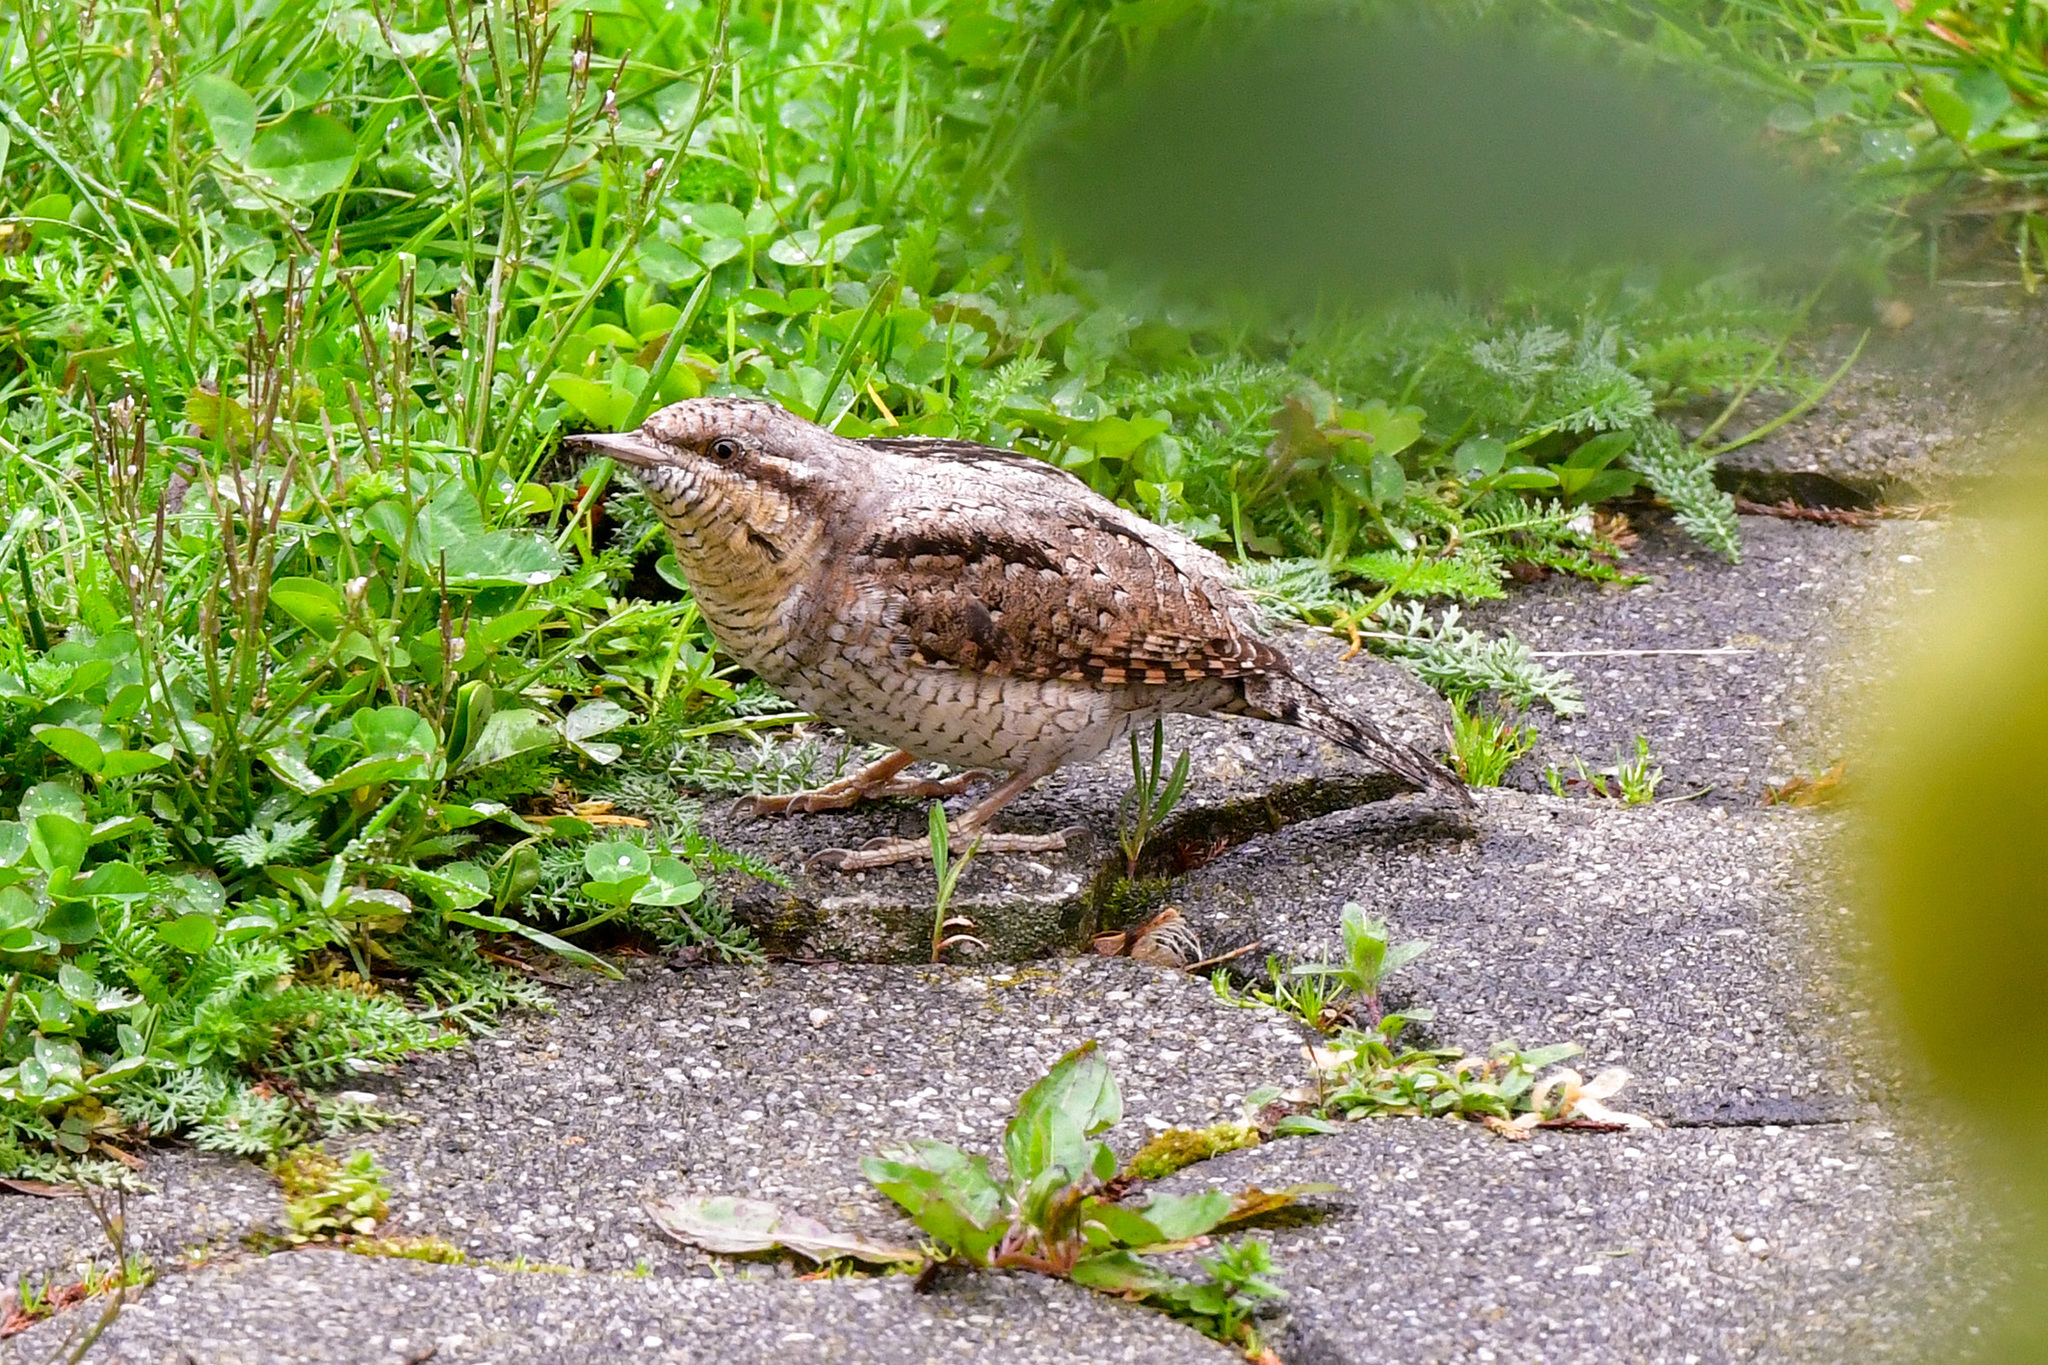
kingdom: Animalia
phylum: Chordata
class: Aves
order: Piciformes
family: Picidae
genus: Jynx
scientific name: Jynx torquilla
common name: Eurasian wryneck
